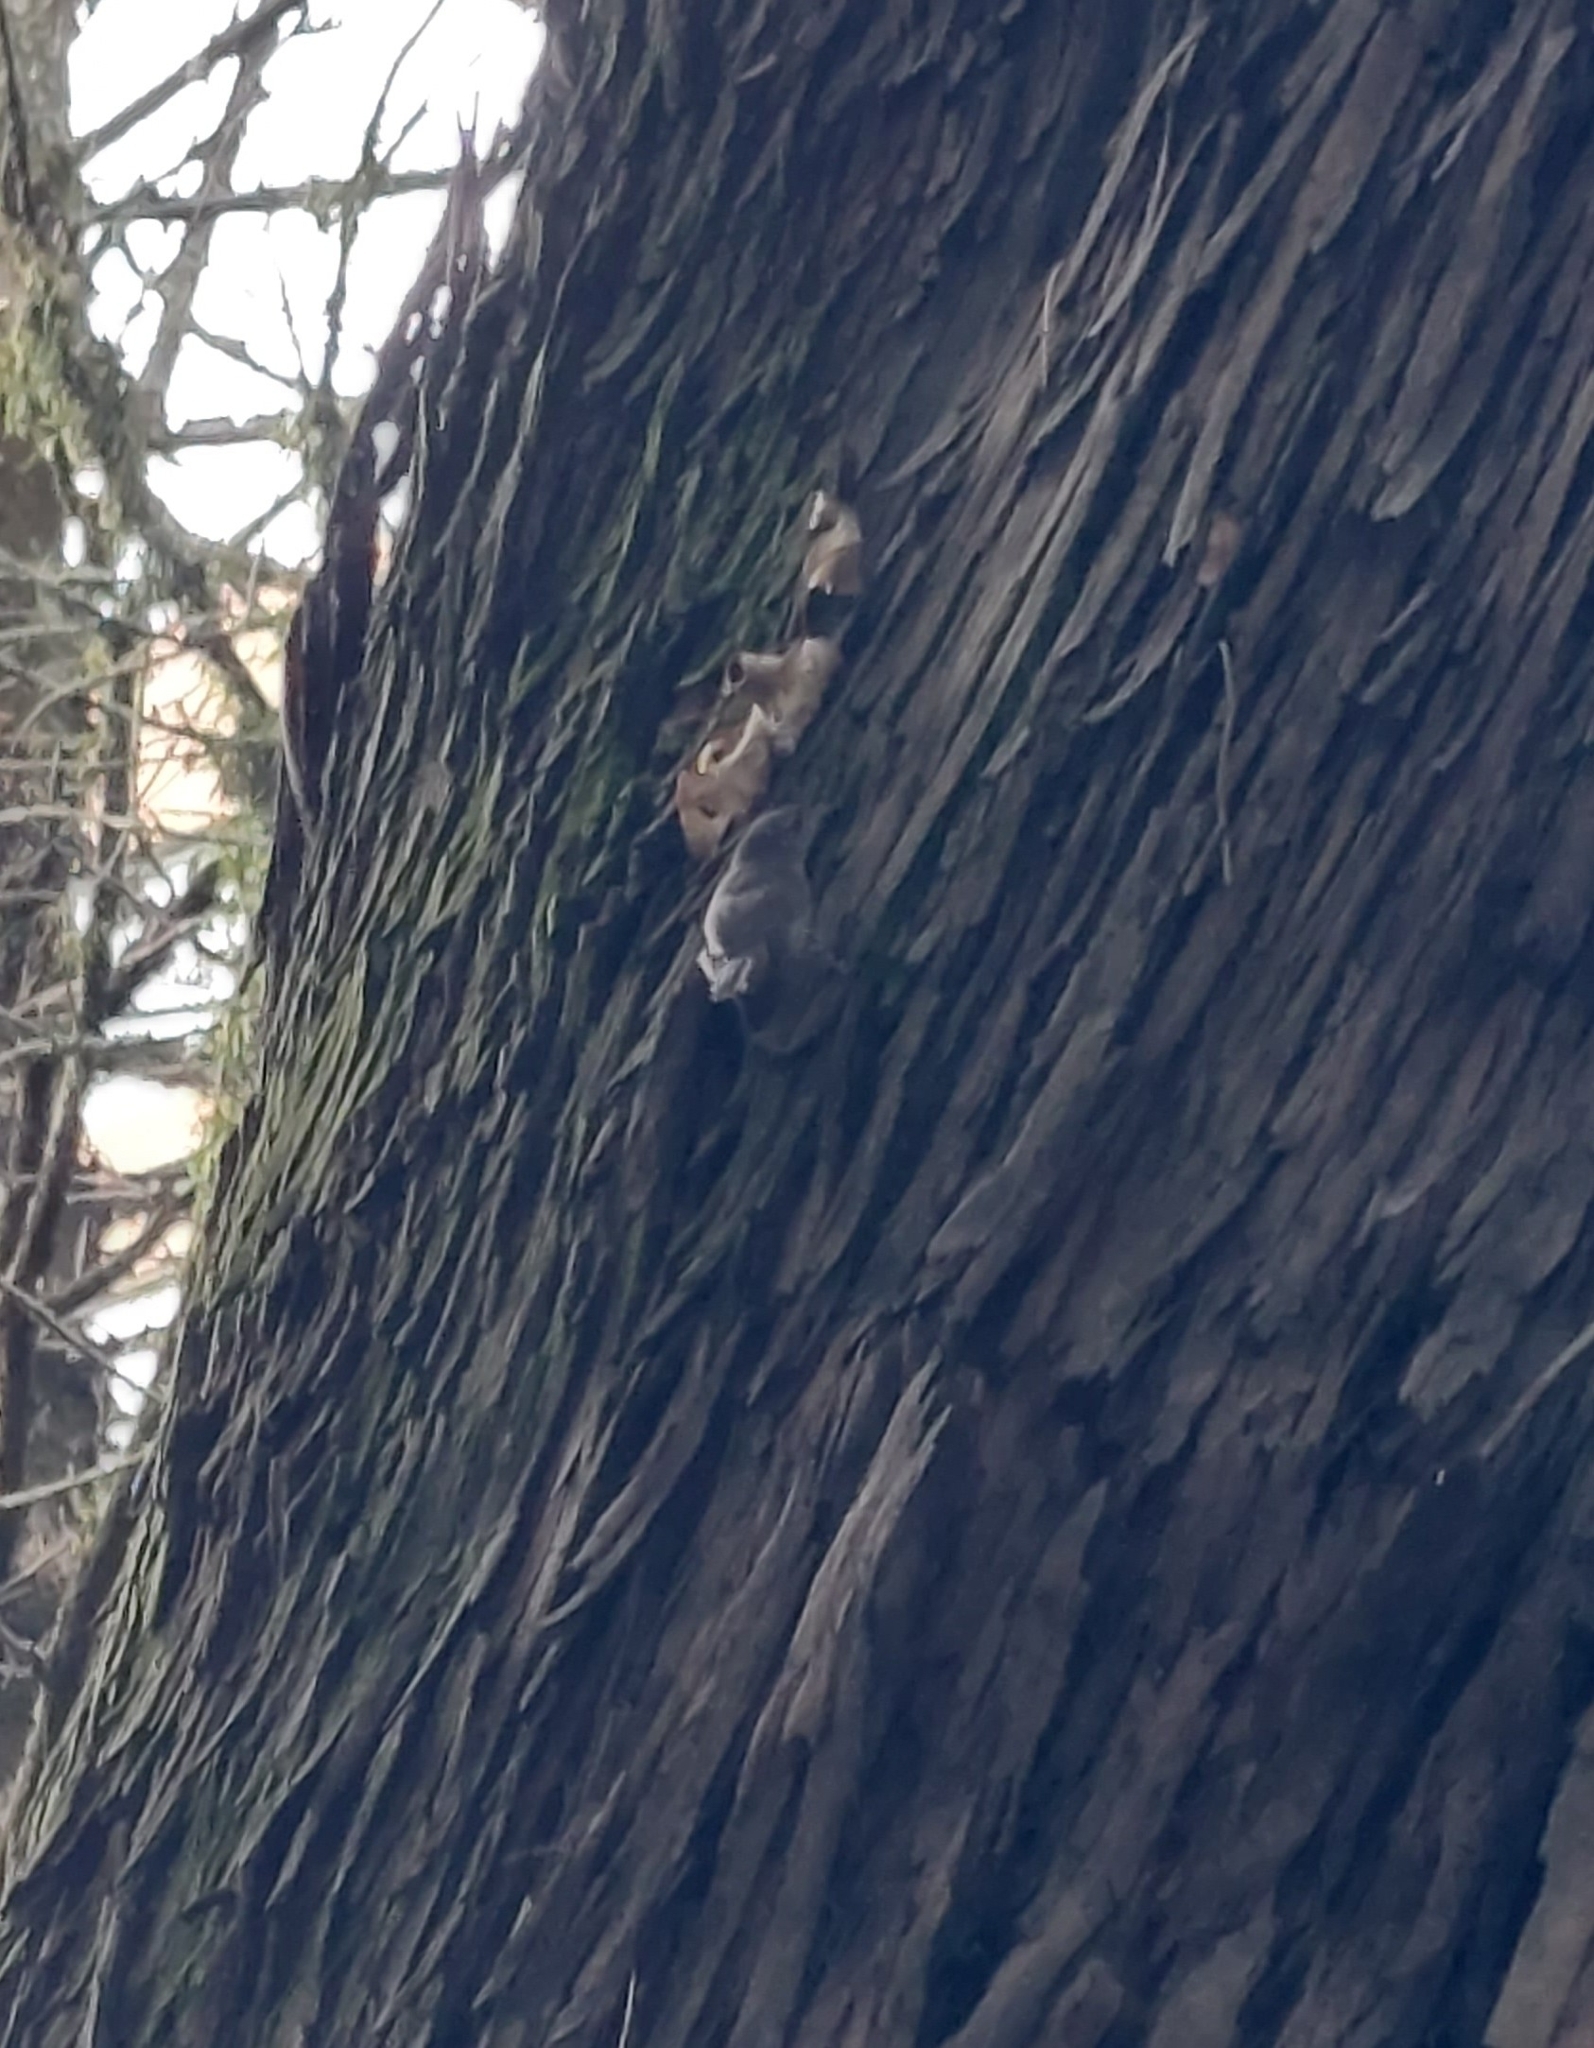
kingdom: Animalia
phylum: Chordata
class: Aves
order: Passeriformes
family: Troglodytidae
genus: Troglodytes
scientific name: Troglodytes aedon
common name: House wren
